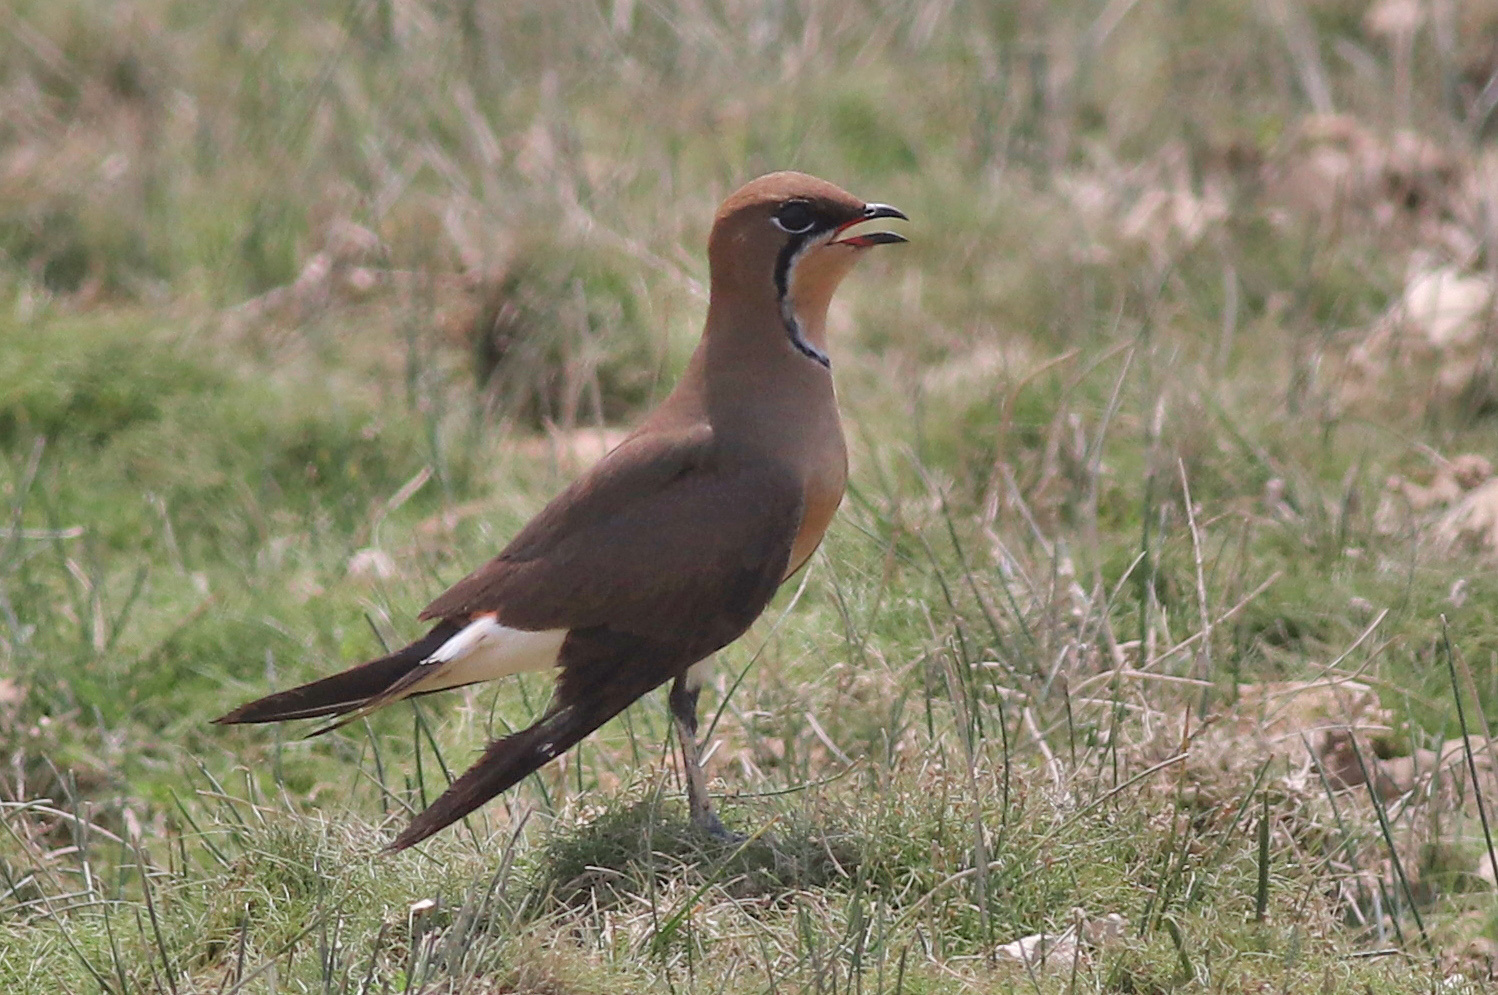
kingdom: Animalia
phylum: Chordata
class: Aves
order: Charadriiformes
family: Glareolidae
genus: Glareola
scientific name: Glareola maldivarum
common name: Oriental pratincole
